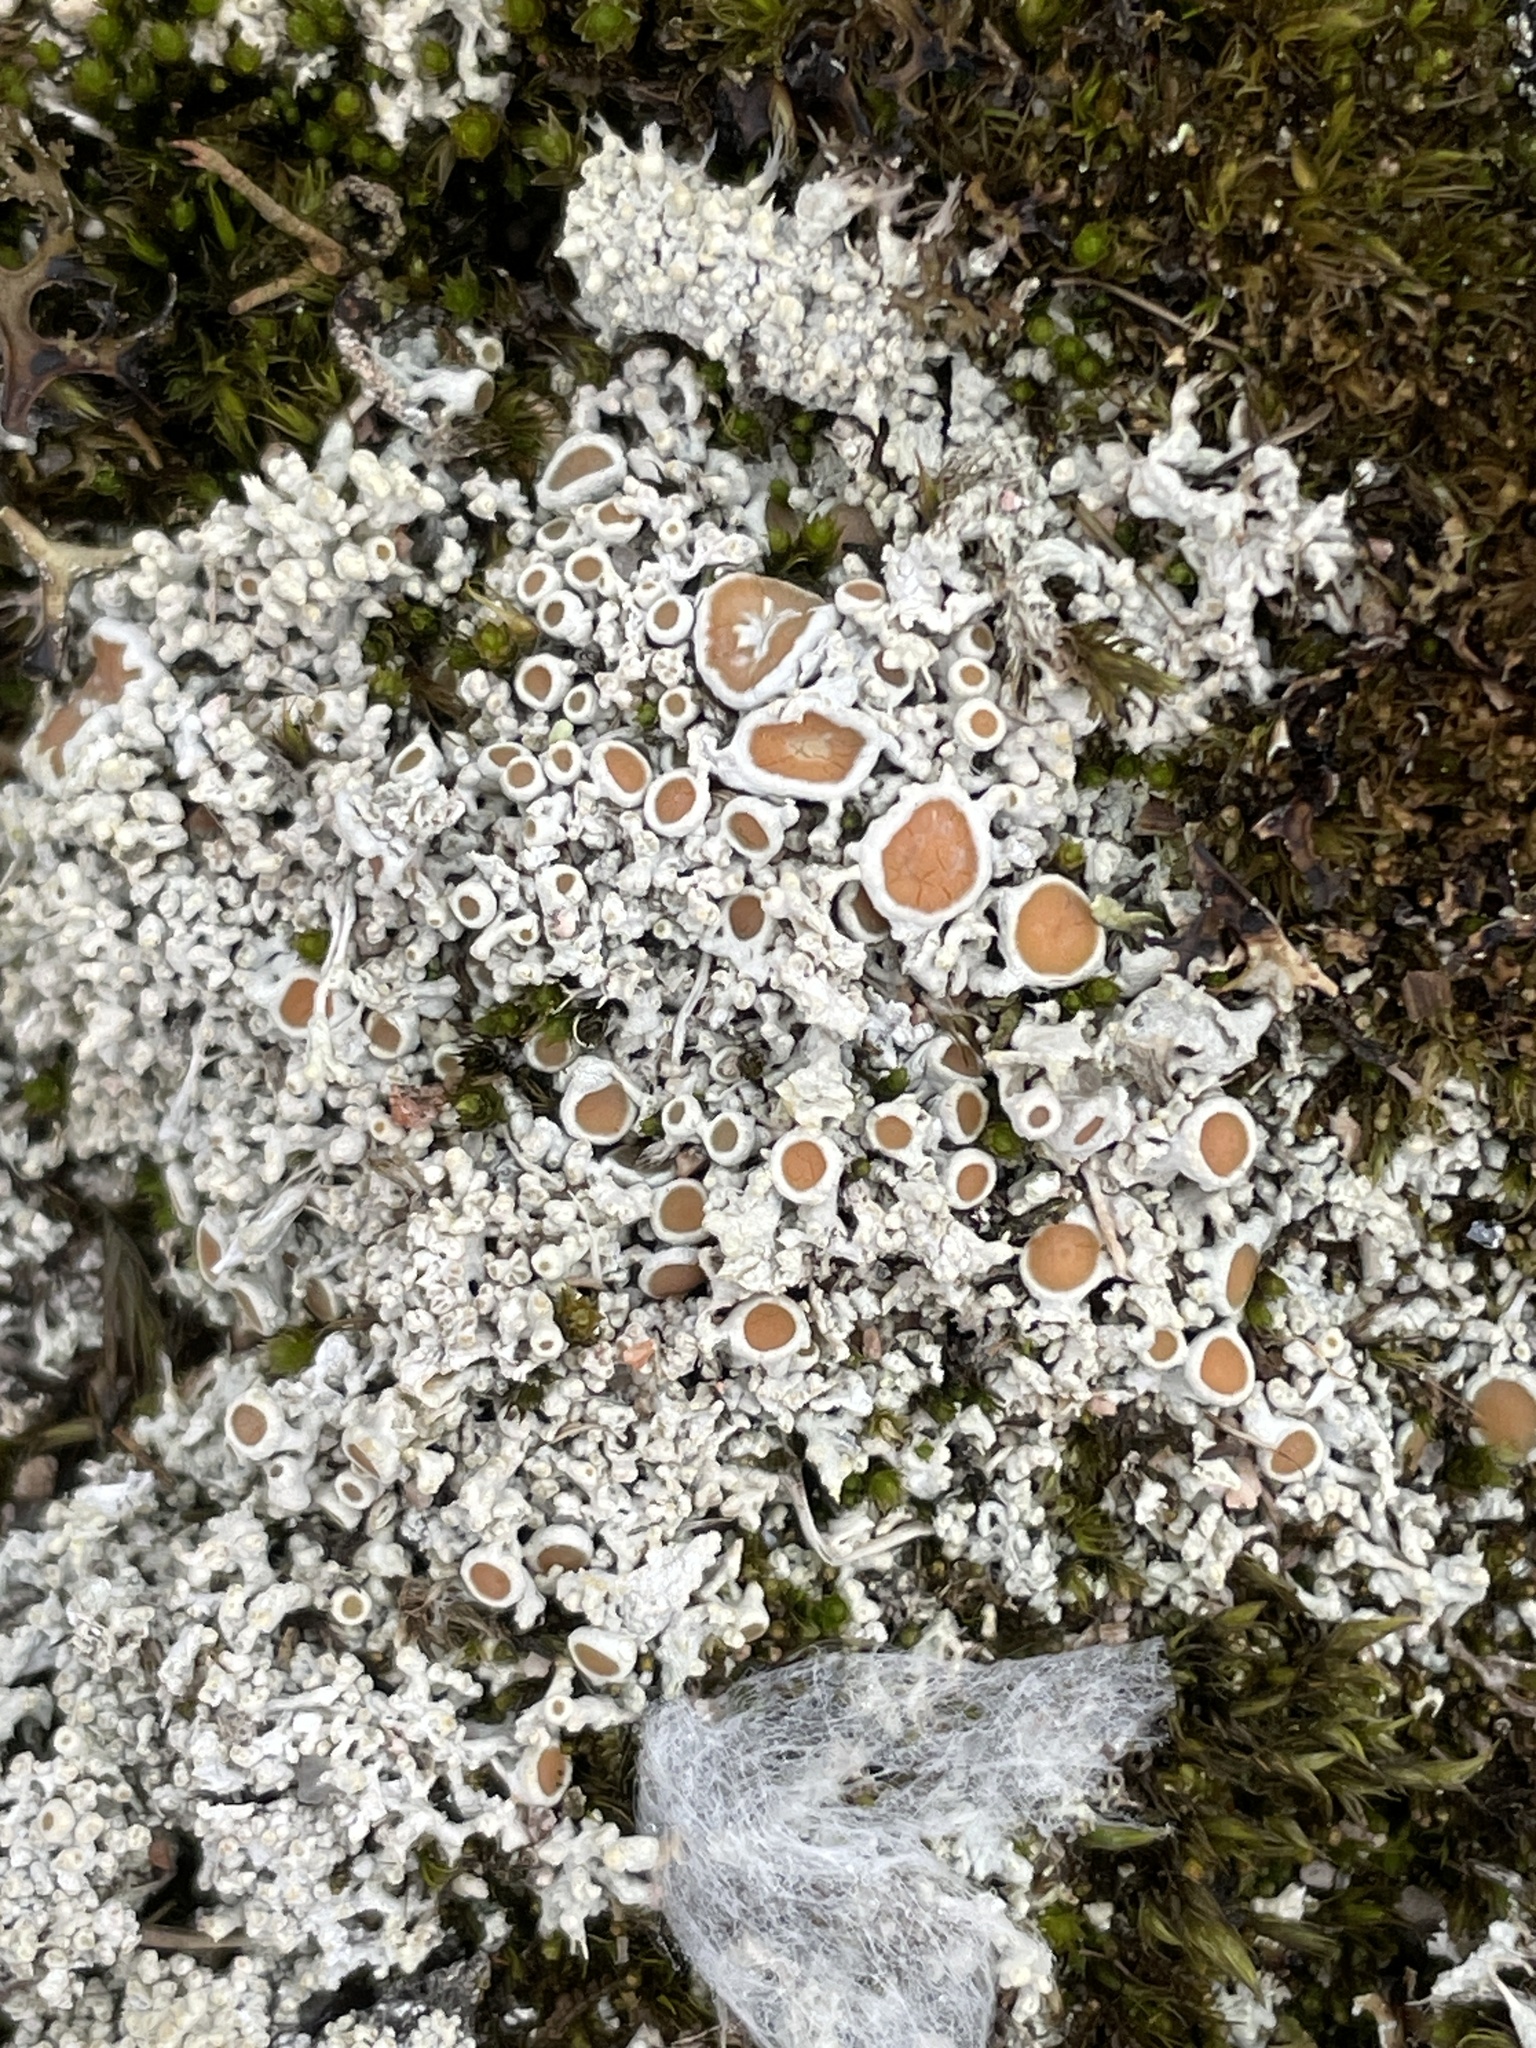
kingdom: Fungi
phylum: Ascomycota
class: Lecanoromycetes
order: Pertusariales
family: Ochrolechiaceae
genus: Ochrolechia
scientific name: Ochrolechia frigida
